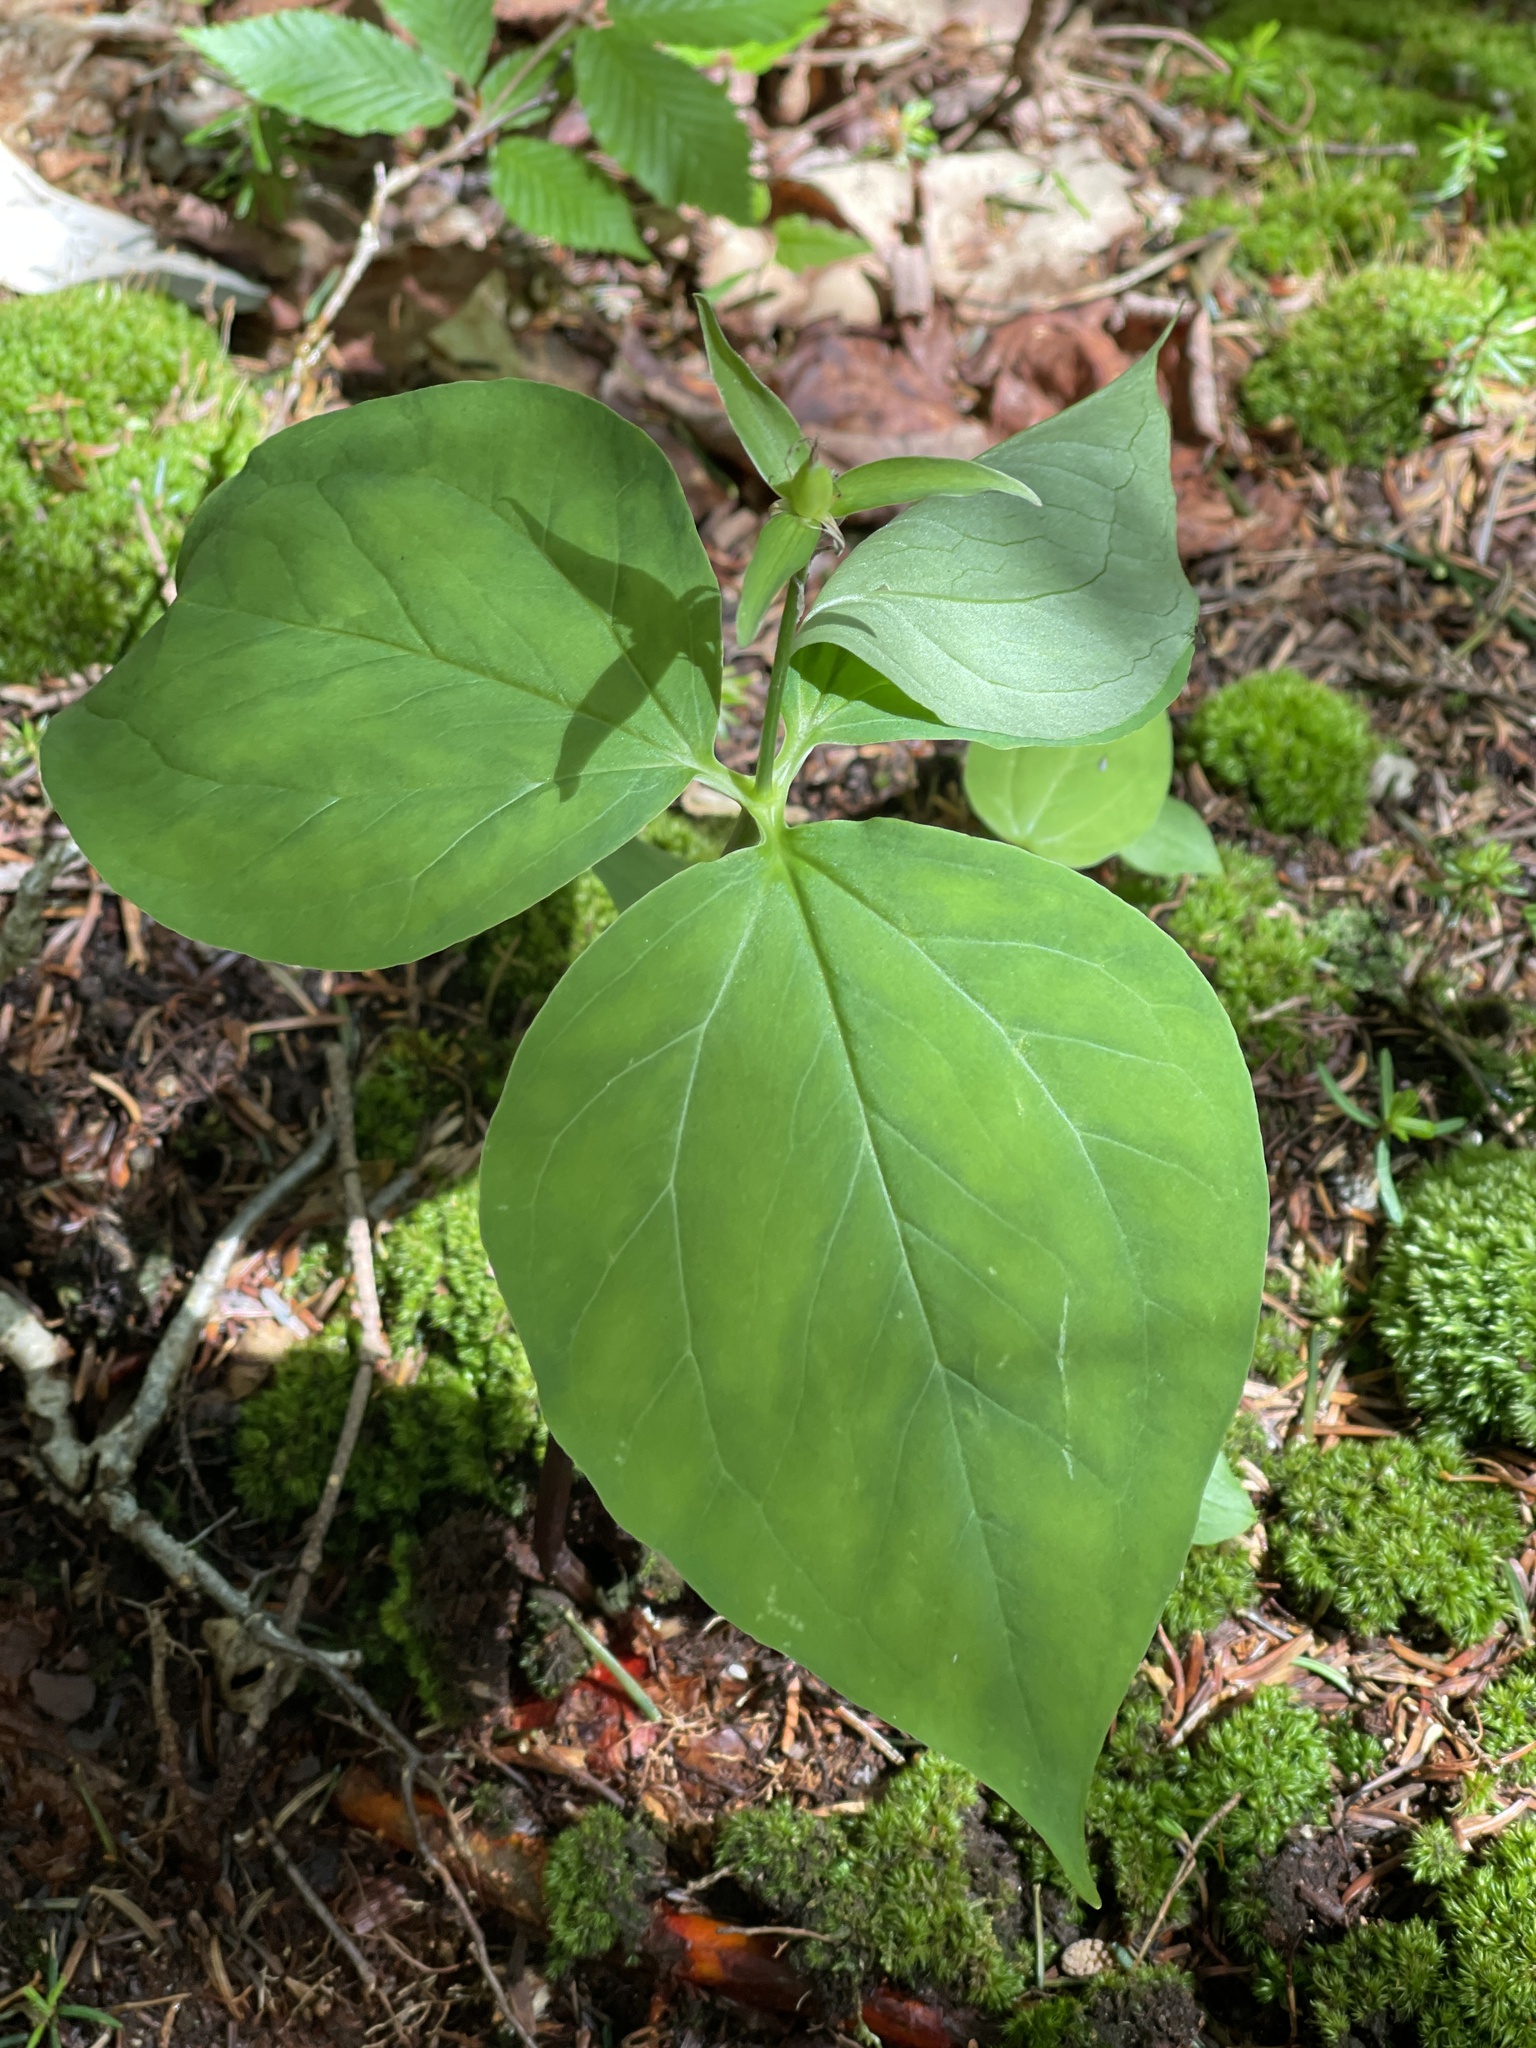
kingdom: Plantae
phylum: Tracheophyta
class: Liliopsida
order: Liliales
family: Melanthiaceae
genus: Trillium
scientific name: Trillium undulatum
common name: Paint trillium
